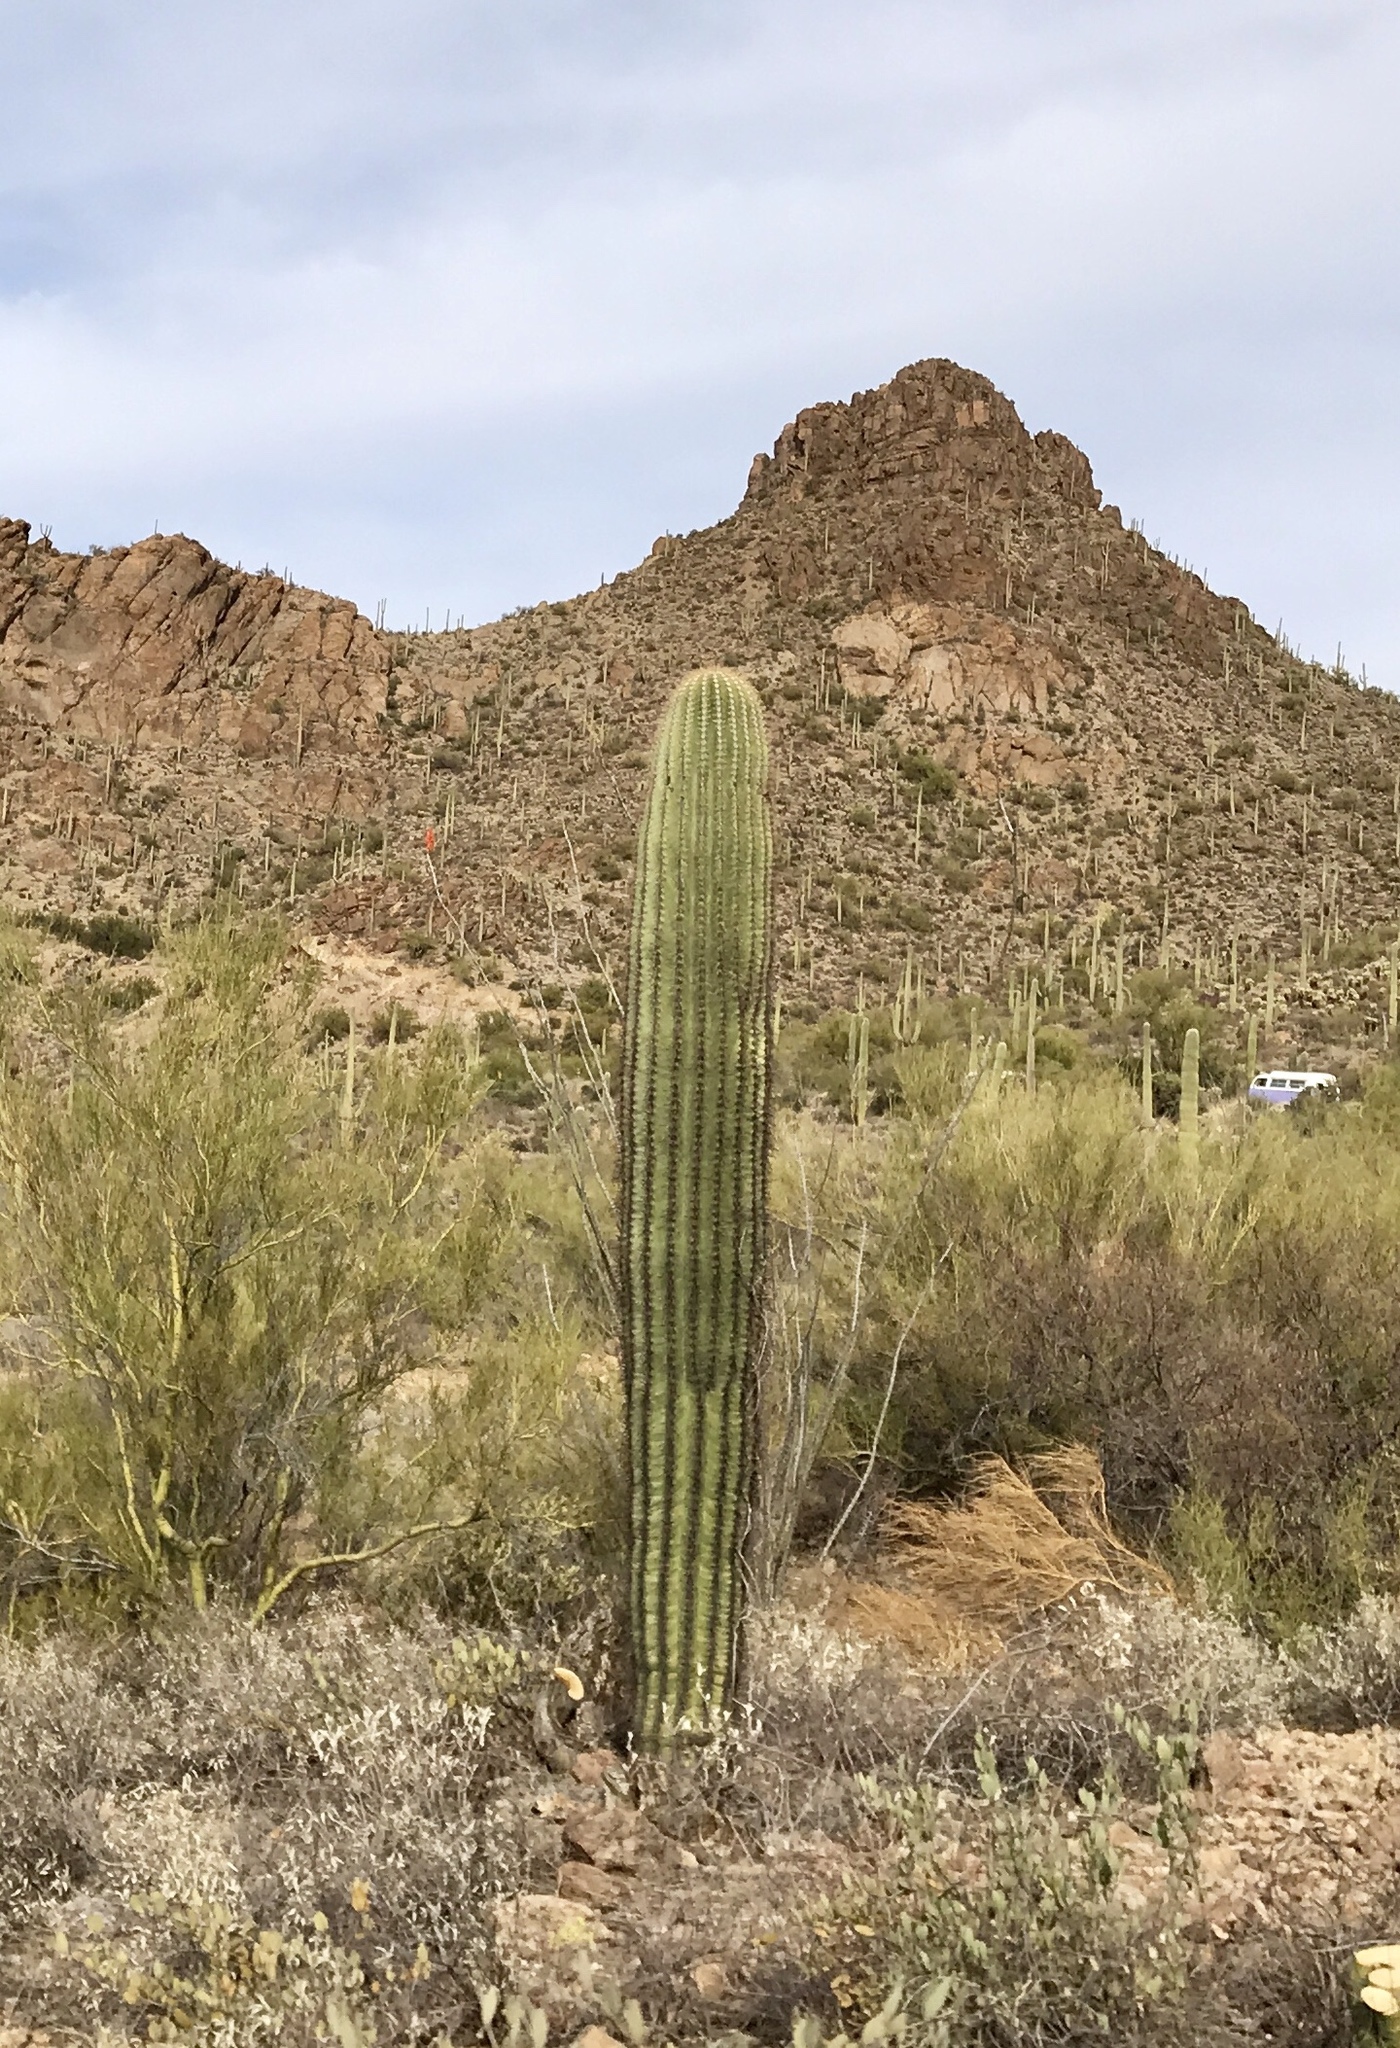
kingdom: Plantae
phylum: Tracheophyta
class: Magnoliopsida
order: Caryophyllales
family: Cactaceae
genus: Carnegiea
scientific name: Carnegiea gigantea
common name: Saguaro
